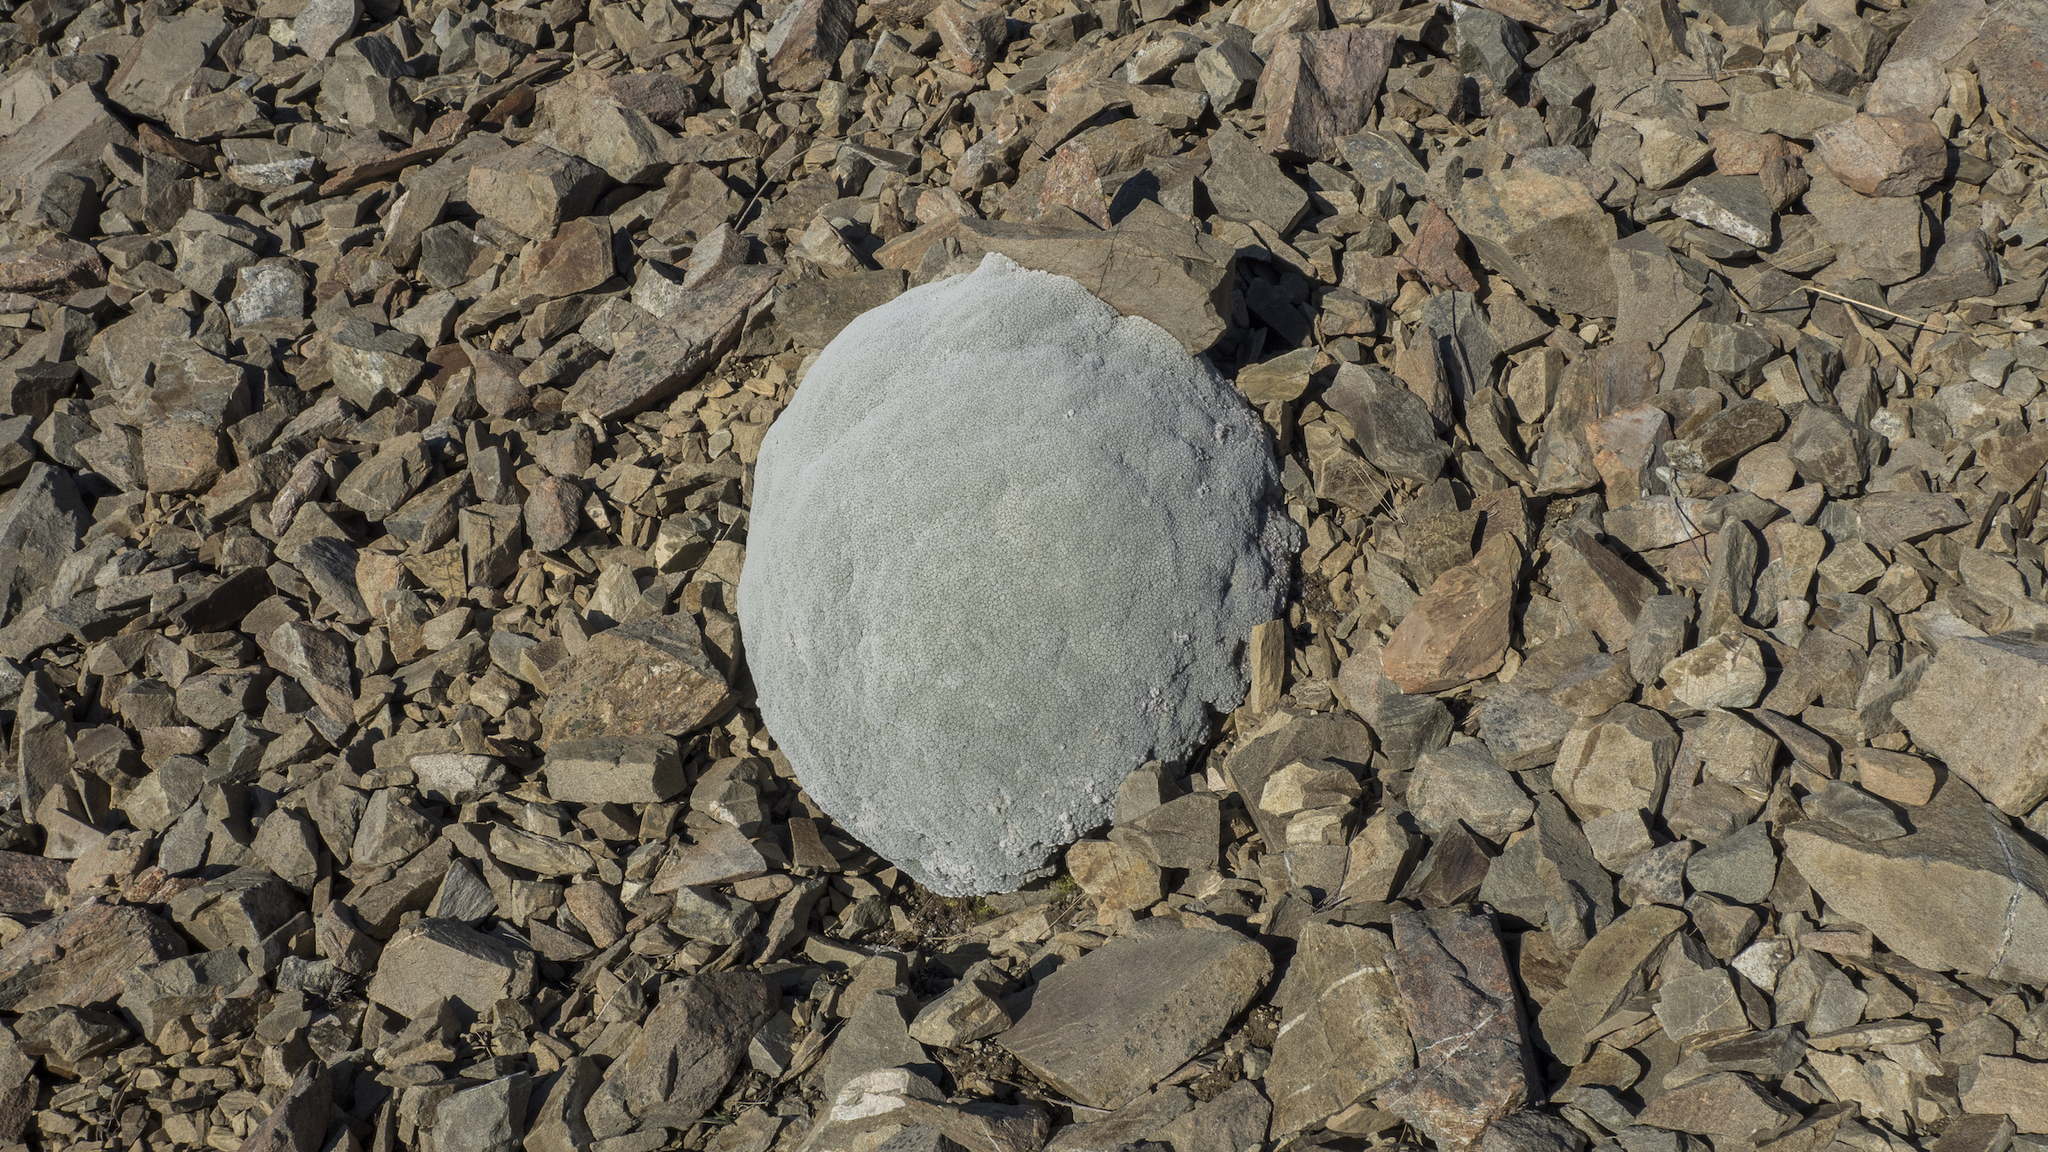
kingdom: Plantae
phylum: Tracheophyta
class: Magnoliopsida
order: Asterales
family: Asteraceae
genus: Raoulia
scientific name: Raoulia eximia
